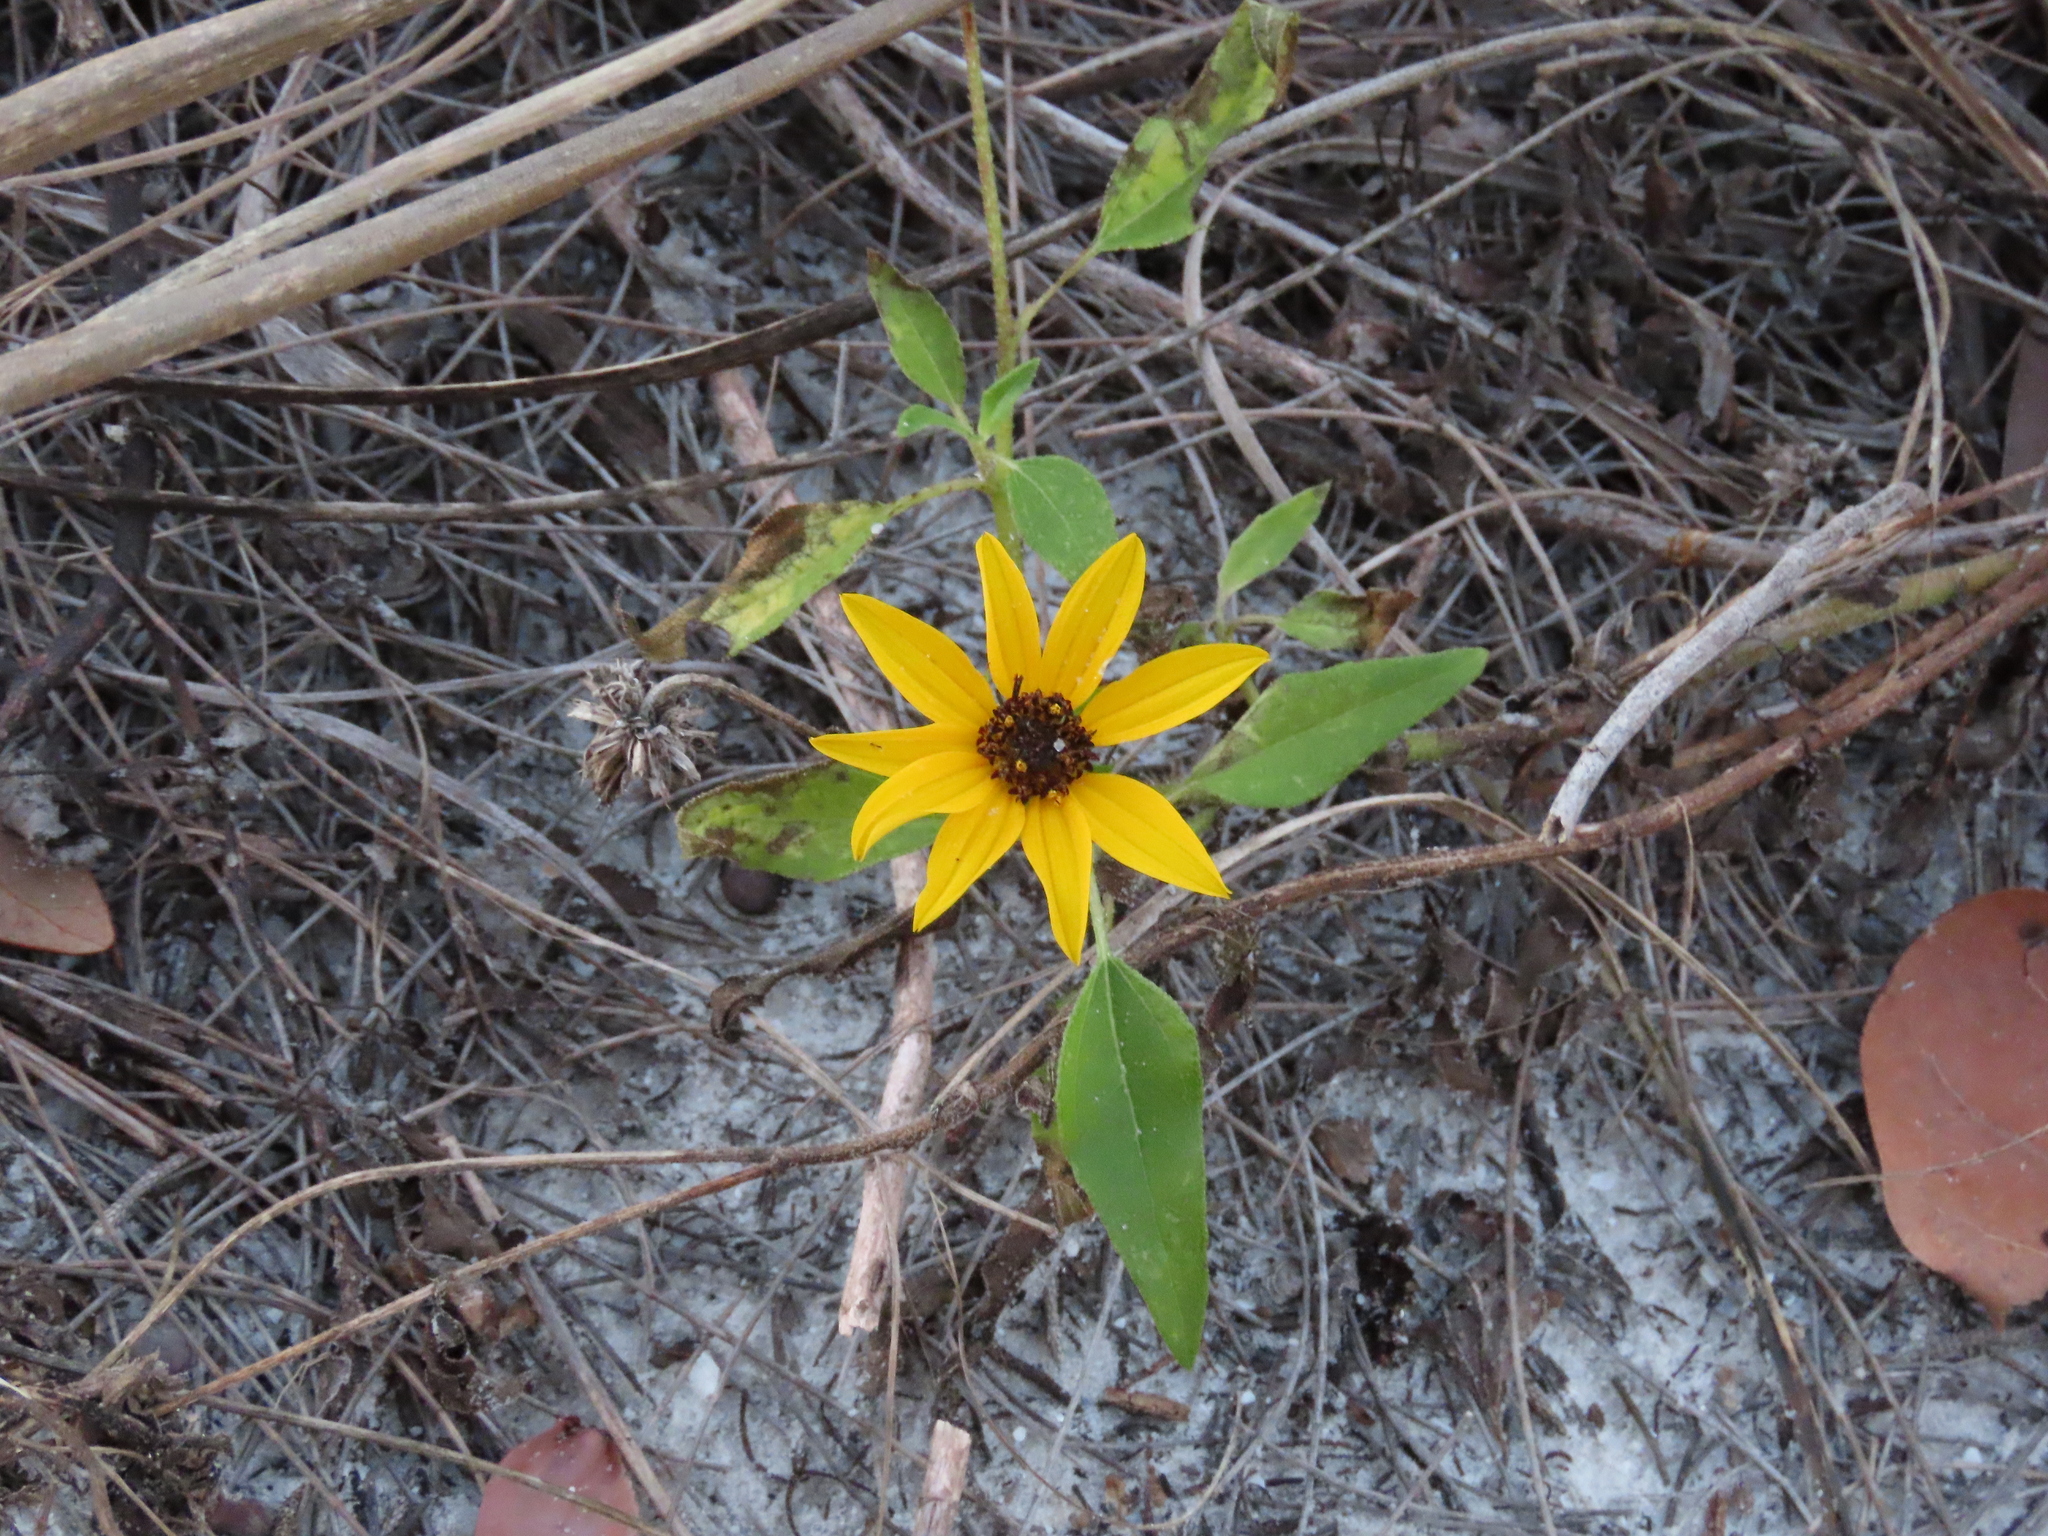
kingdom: Plantae
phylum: Tracheophyta
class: Magnoliopsida
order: Asterales
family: Asteraceae
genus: Helianthus
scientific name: Helianthus debilis
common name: Weak sunflower
